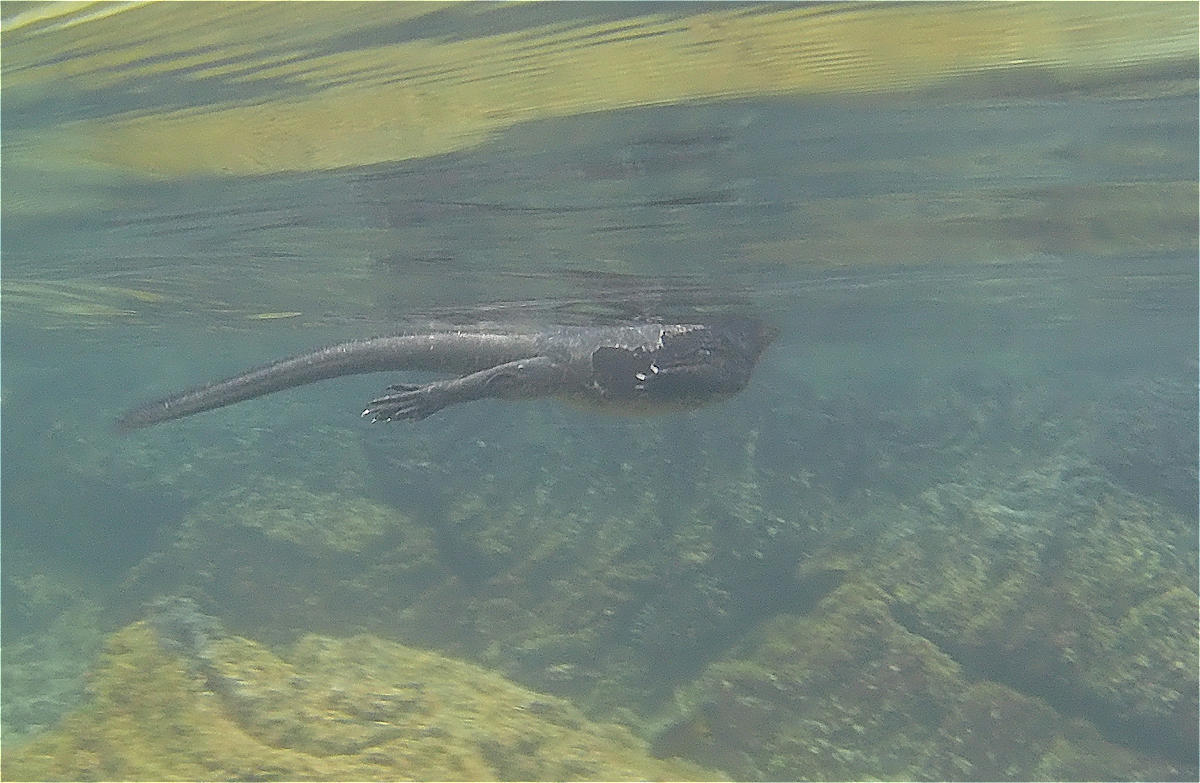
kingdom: Animalia
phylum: Chordata
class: Squamata
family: Iguanidae
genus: Amblyrhynchus
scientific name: Amblyrhynchus cristatus
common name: Marine iguana
